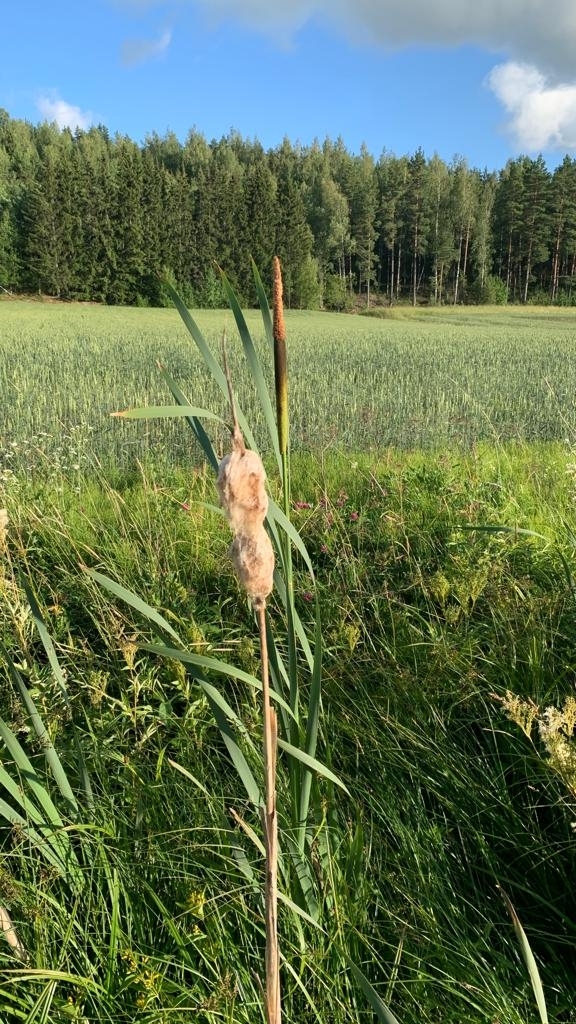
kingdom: Plantae
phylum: Tracheophyta
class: Liliopsida
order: Poales
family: Typhaceae
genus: Typha
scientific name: Typha latifolia
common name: Broadleaf cattail
